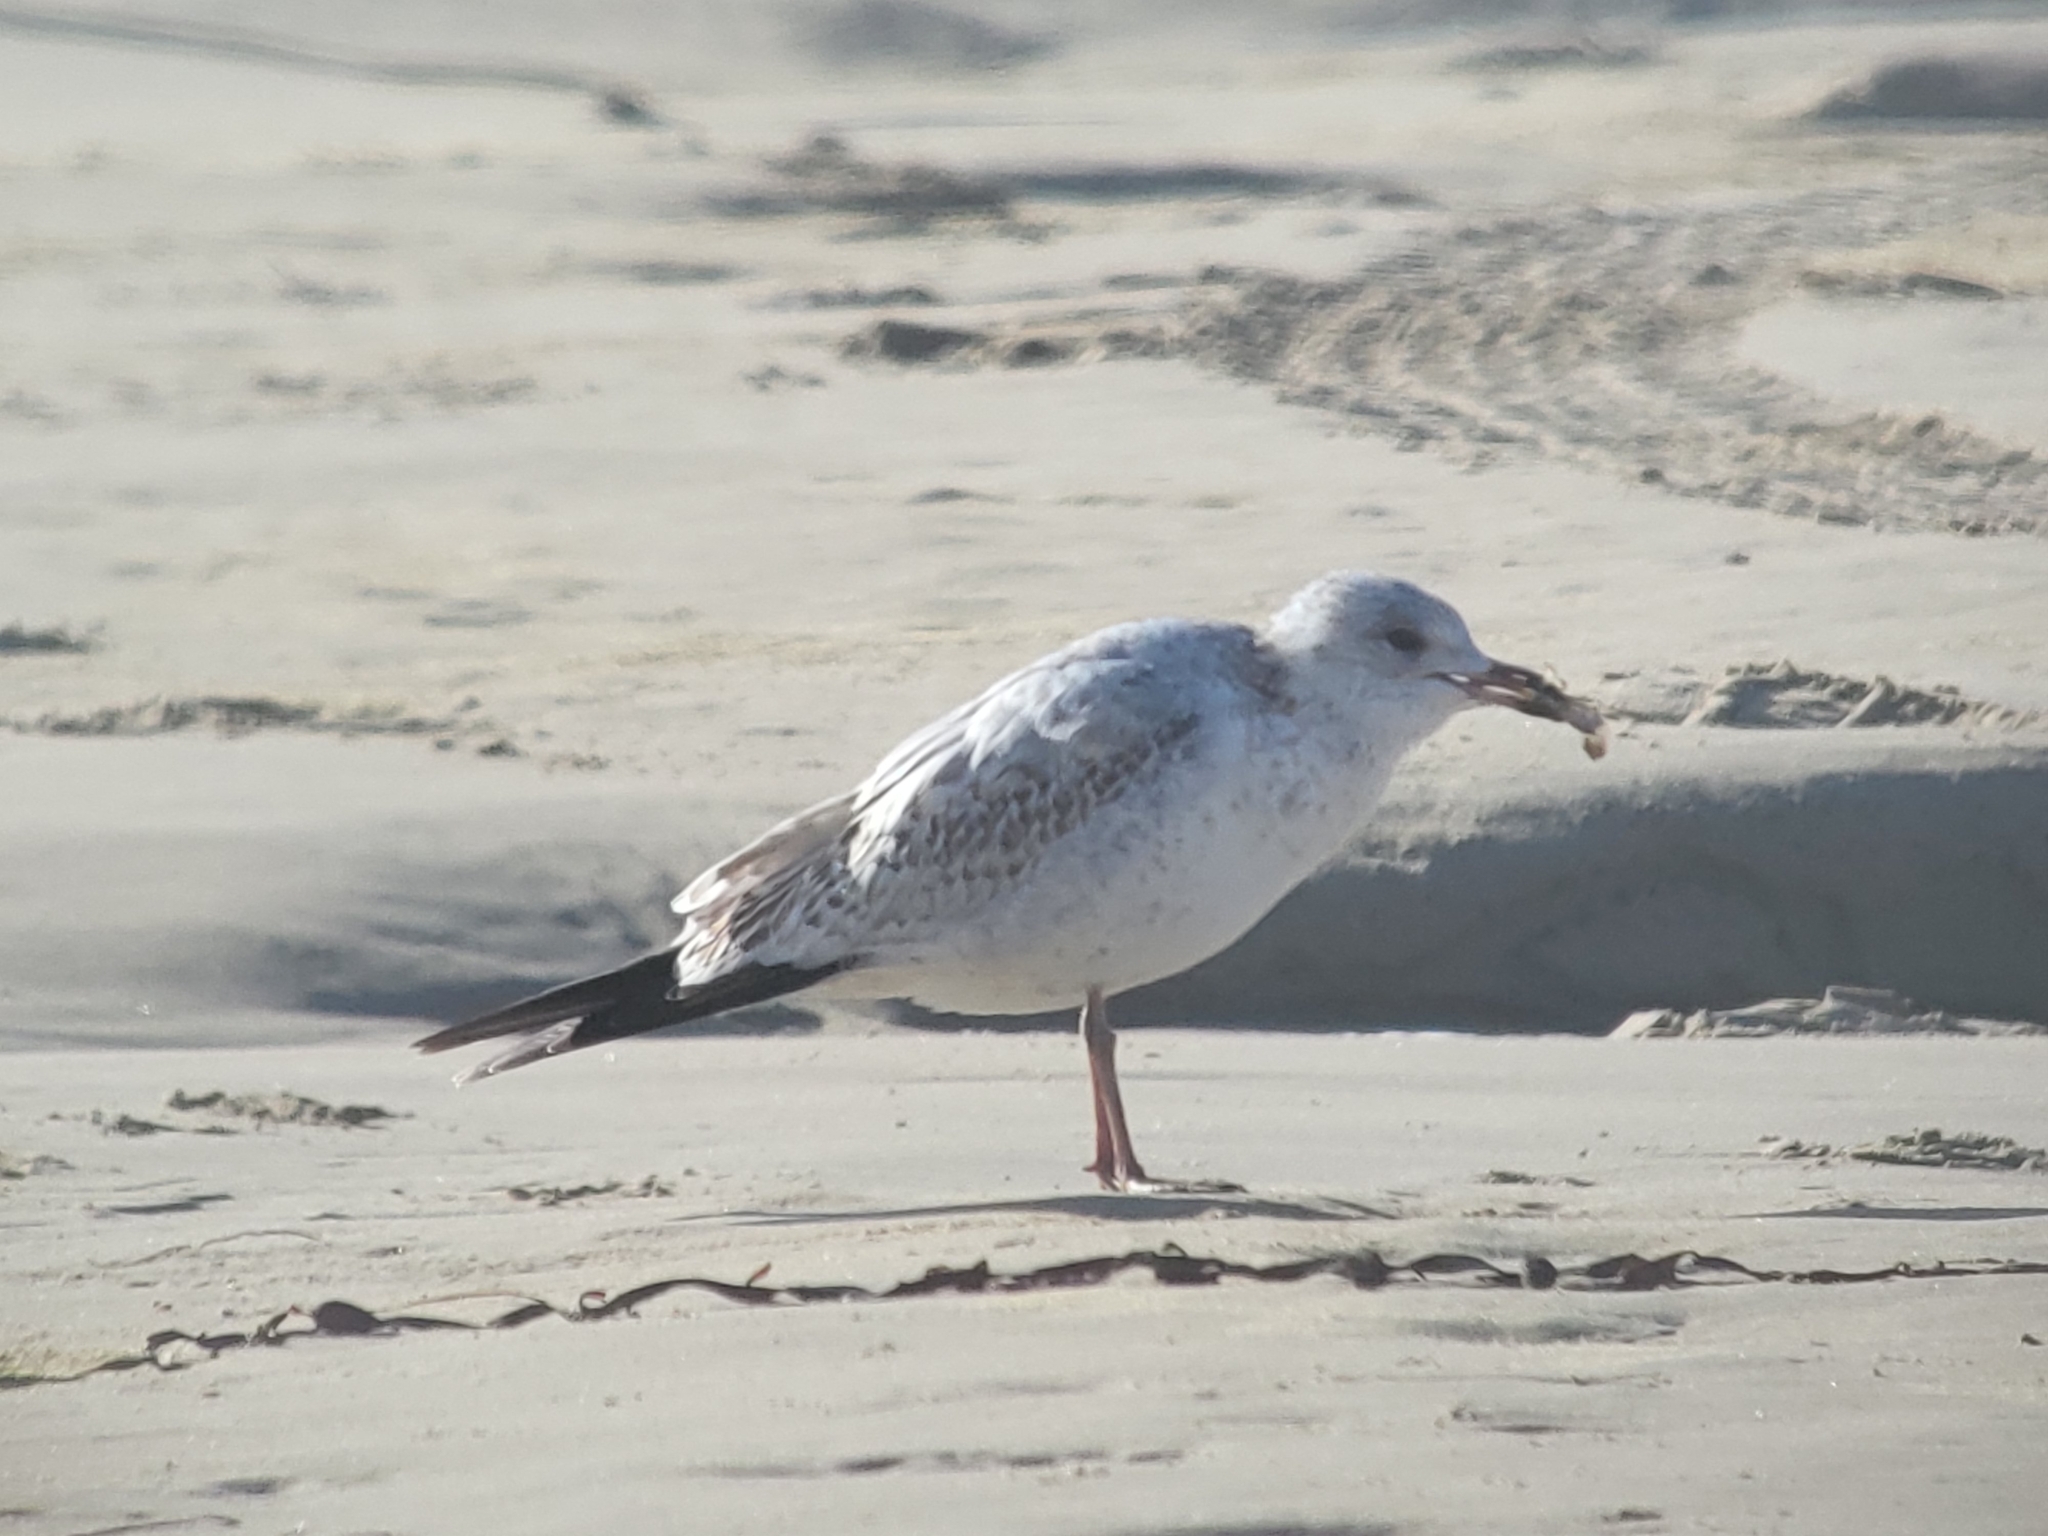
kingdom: Animalia
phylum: Chordata
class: Aves
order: Charadriiformes
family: Laridae
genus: Larus
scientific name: Larus delawarensis
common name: Ring-billed gull
